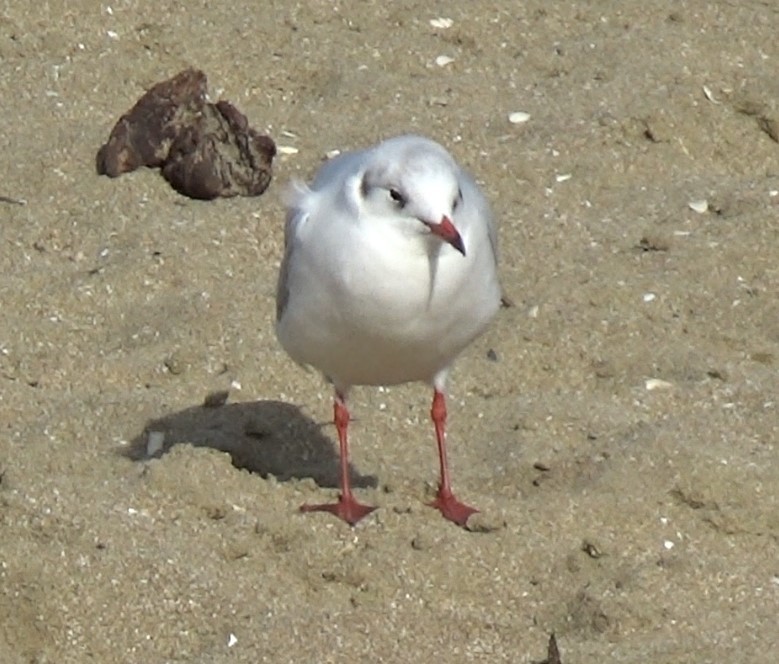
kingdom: Animalia
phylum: Chordata
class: Aves
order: Charadriiformes
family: Laridae
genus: Chroicocephalus
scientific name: Chroicocephalus ridibundus
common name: Black-headed gull
